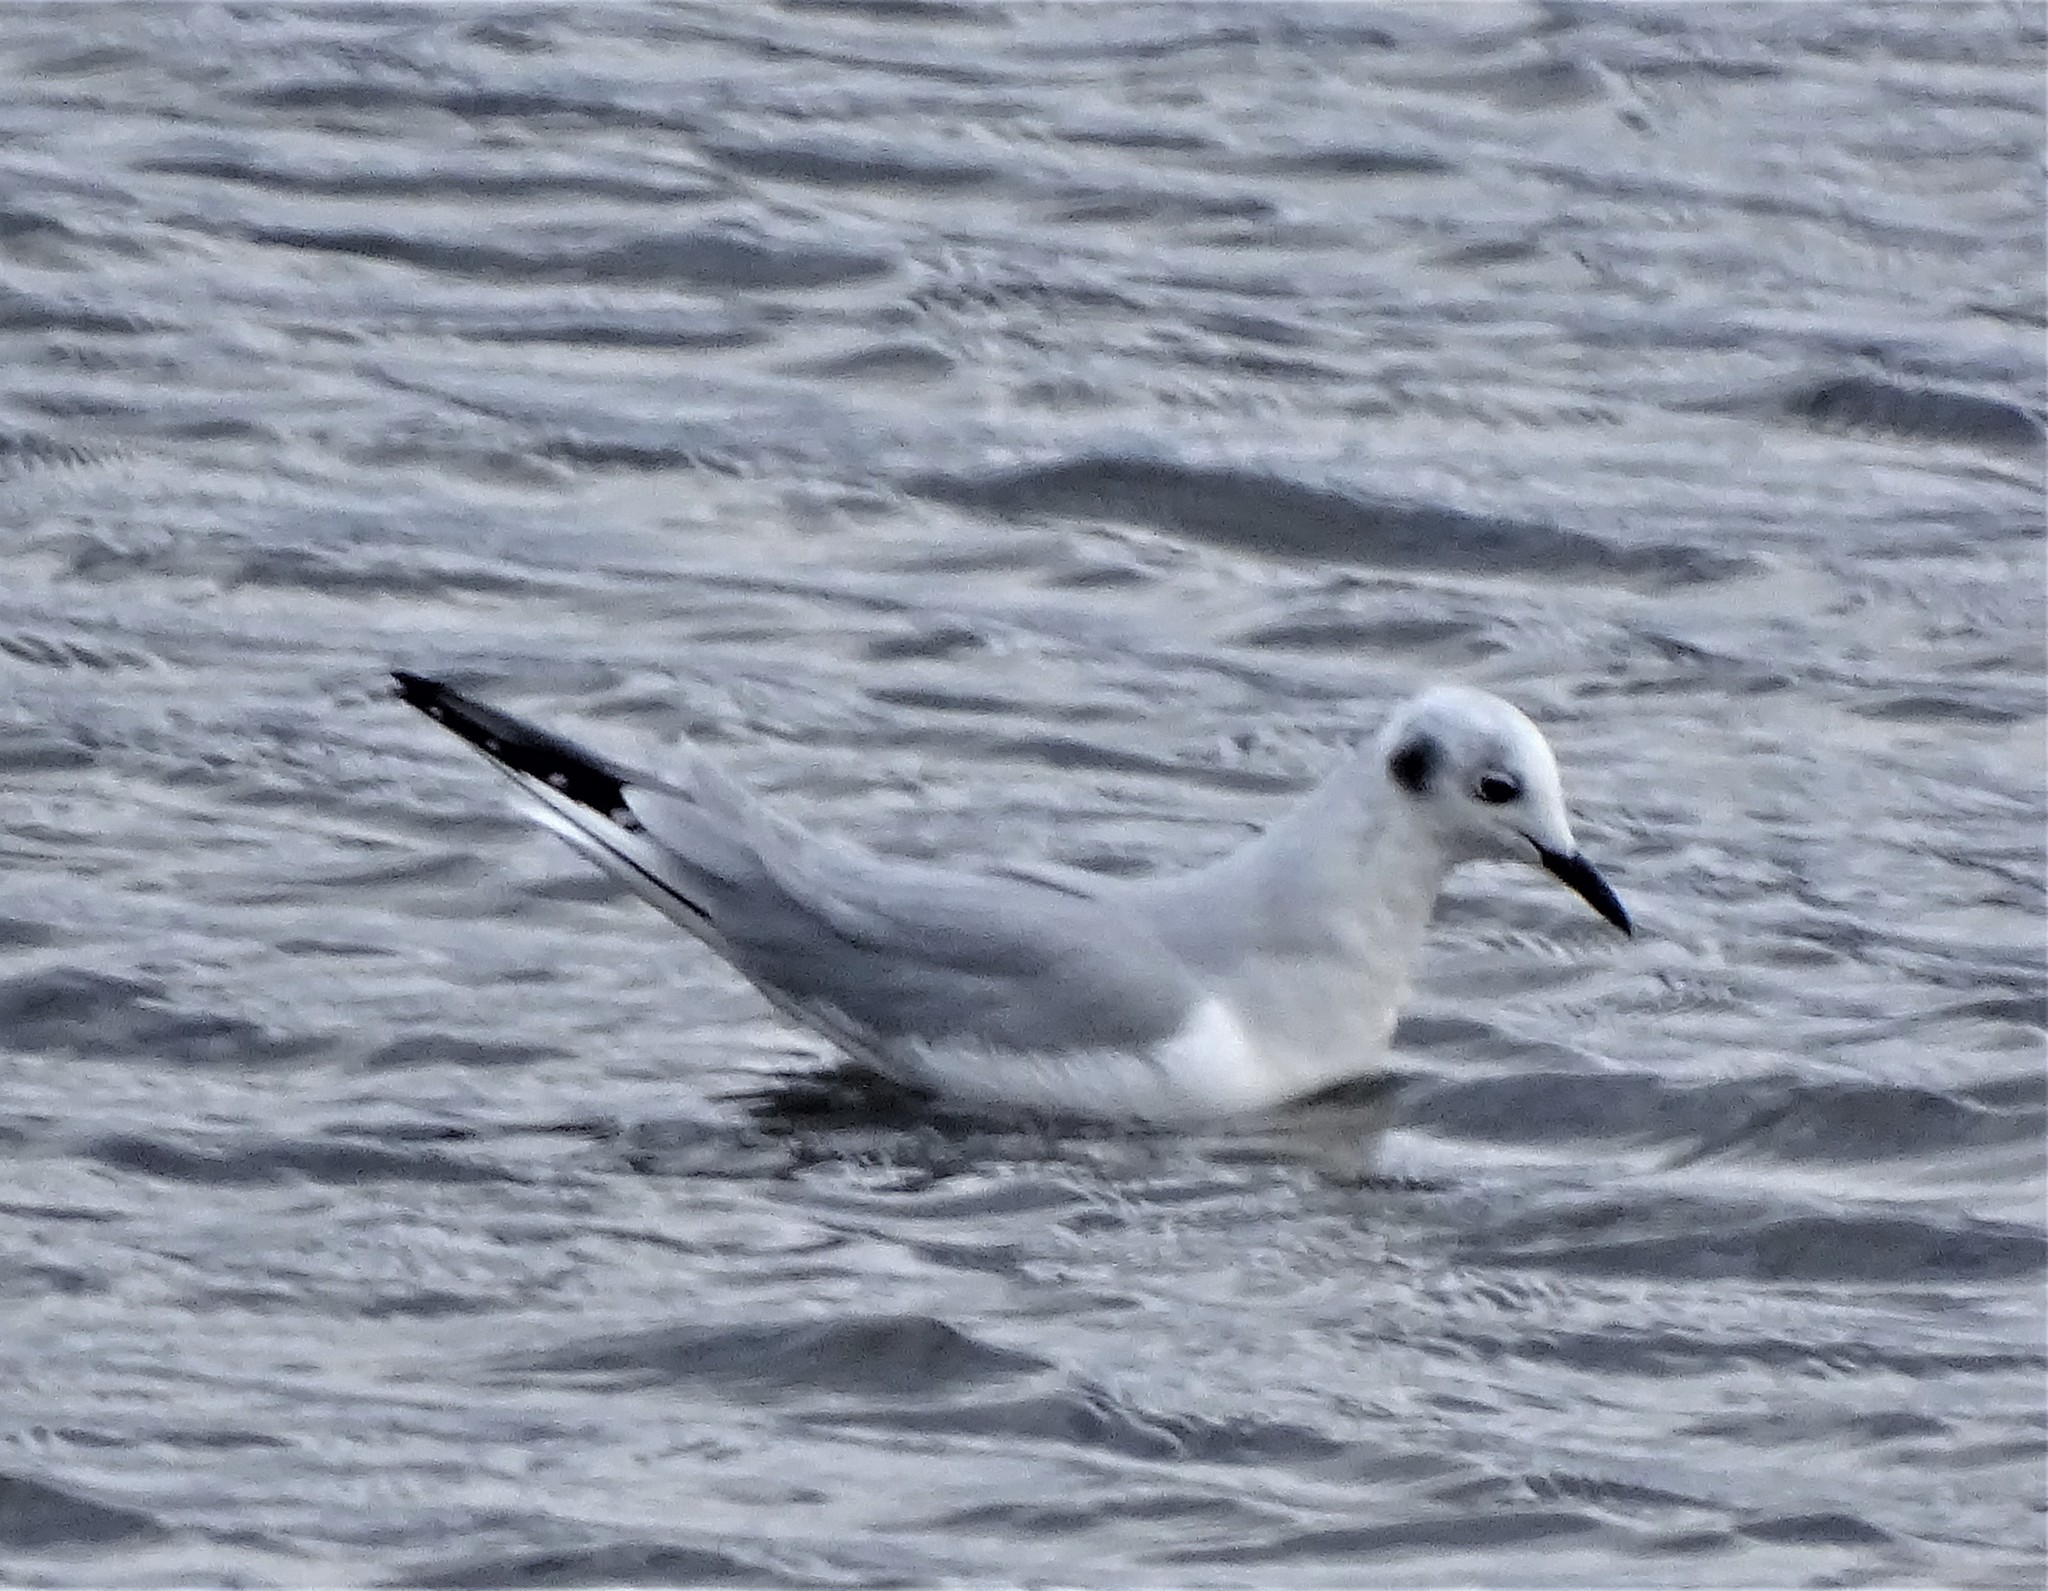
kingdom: Animalia
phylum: Chordata
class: Aves
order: Charadriiformes
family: Laridae
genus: Chroicocephalus
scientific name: Chroicocephalus philadelphia
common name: Bonaparte's gull
